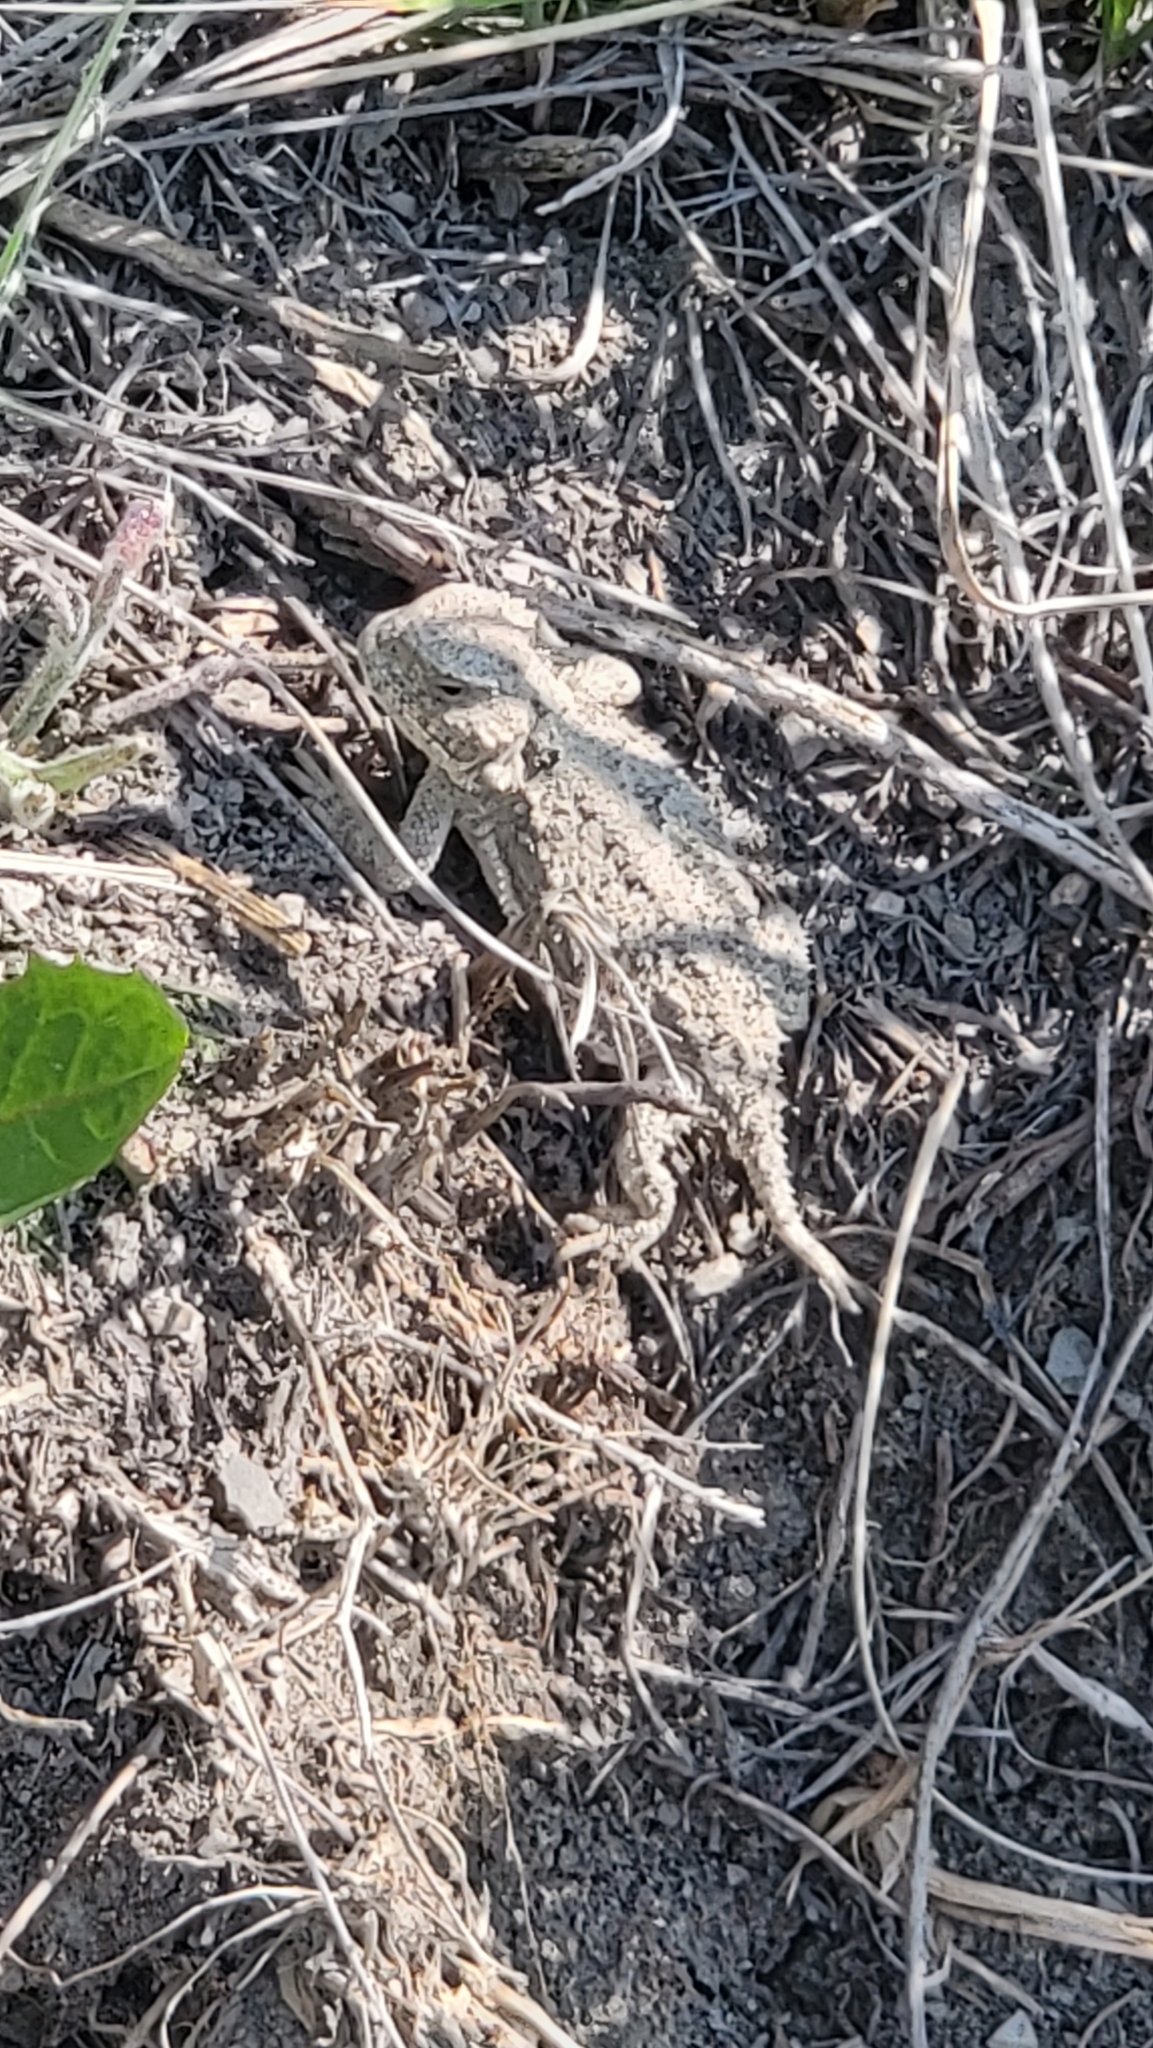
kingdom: Animalia
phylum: Chordata
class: Squamata
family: Phrynosomatidae
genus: Phrynosoma
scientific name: Phrynosoma hernandesi
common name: Greater short-horned lizard
